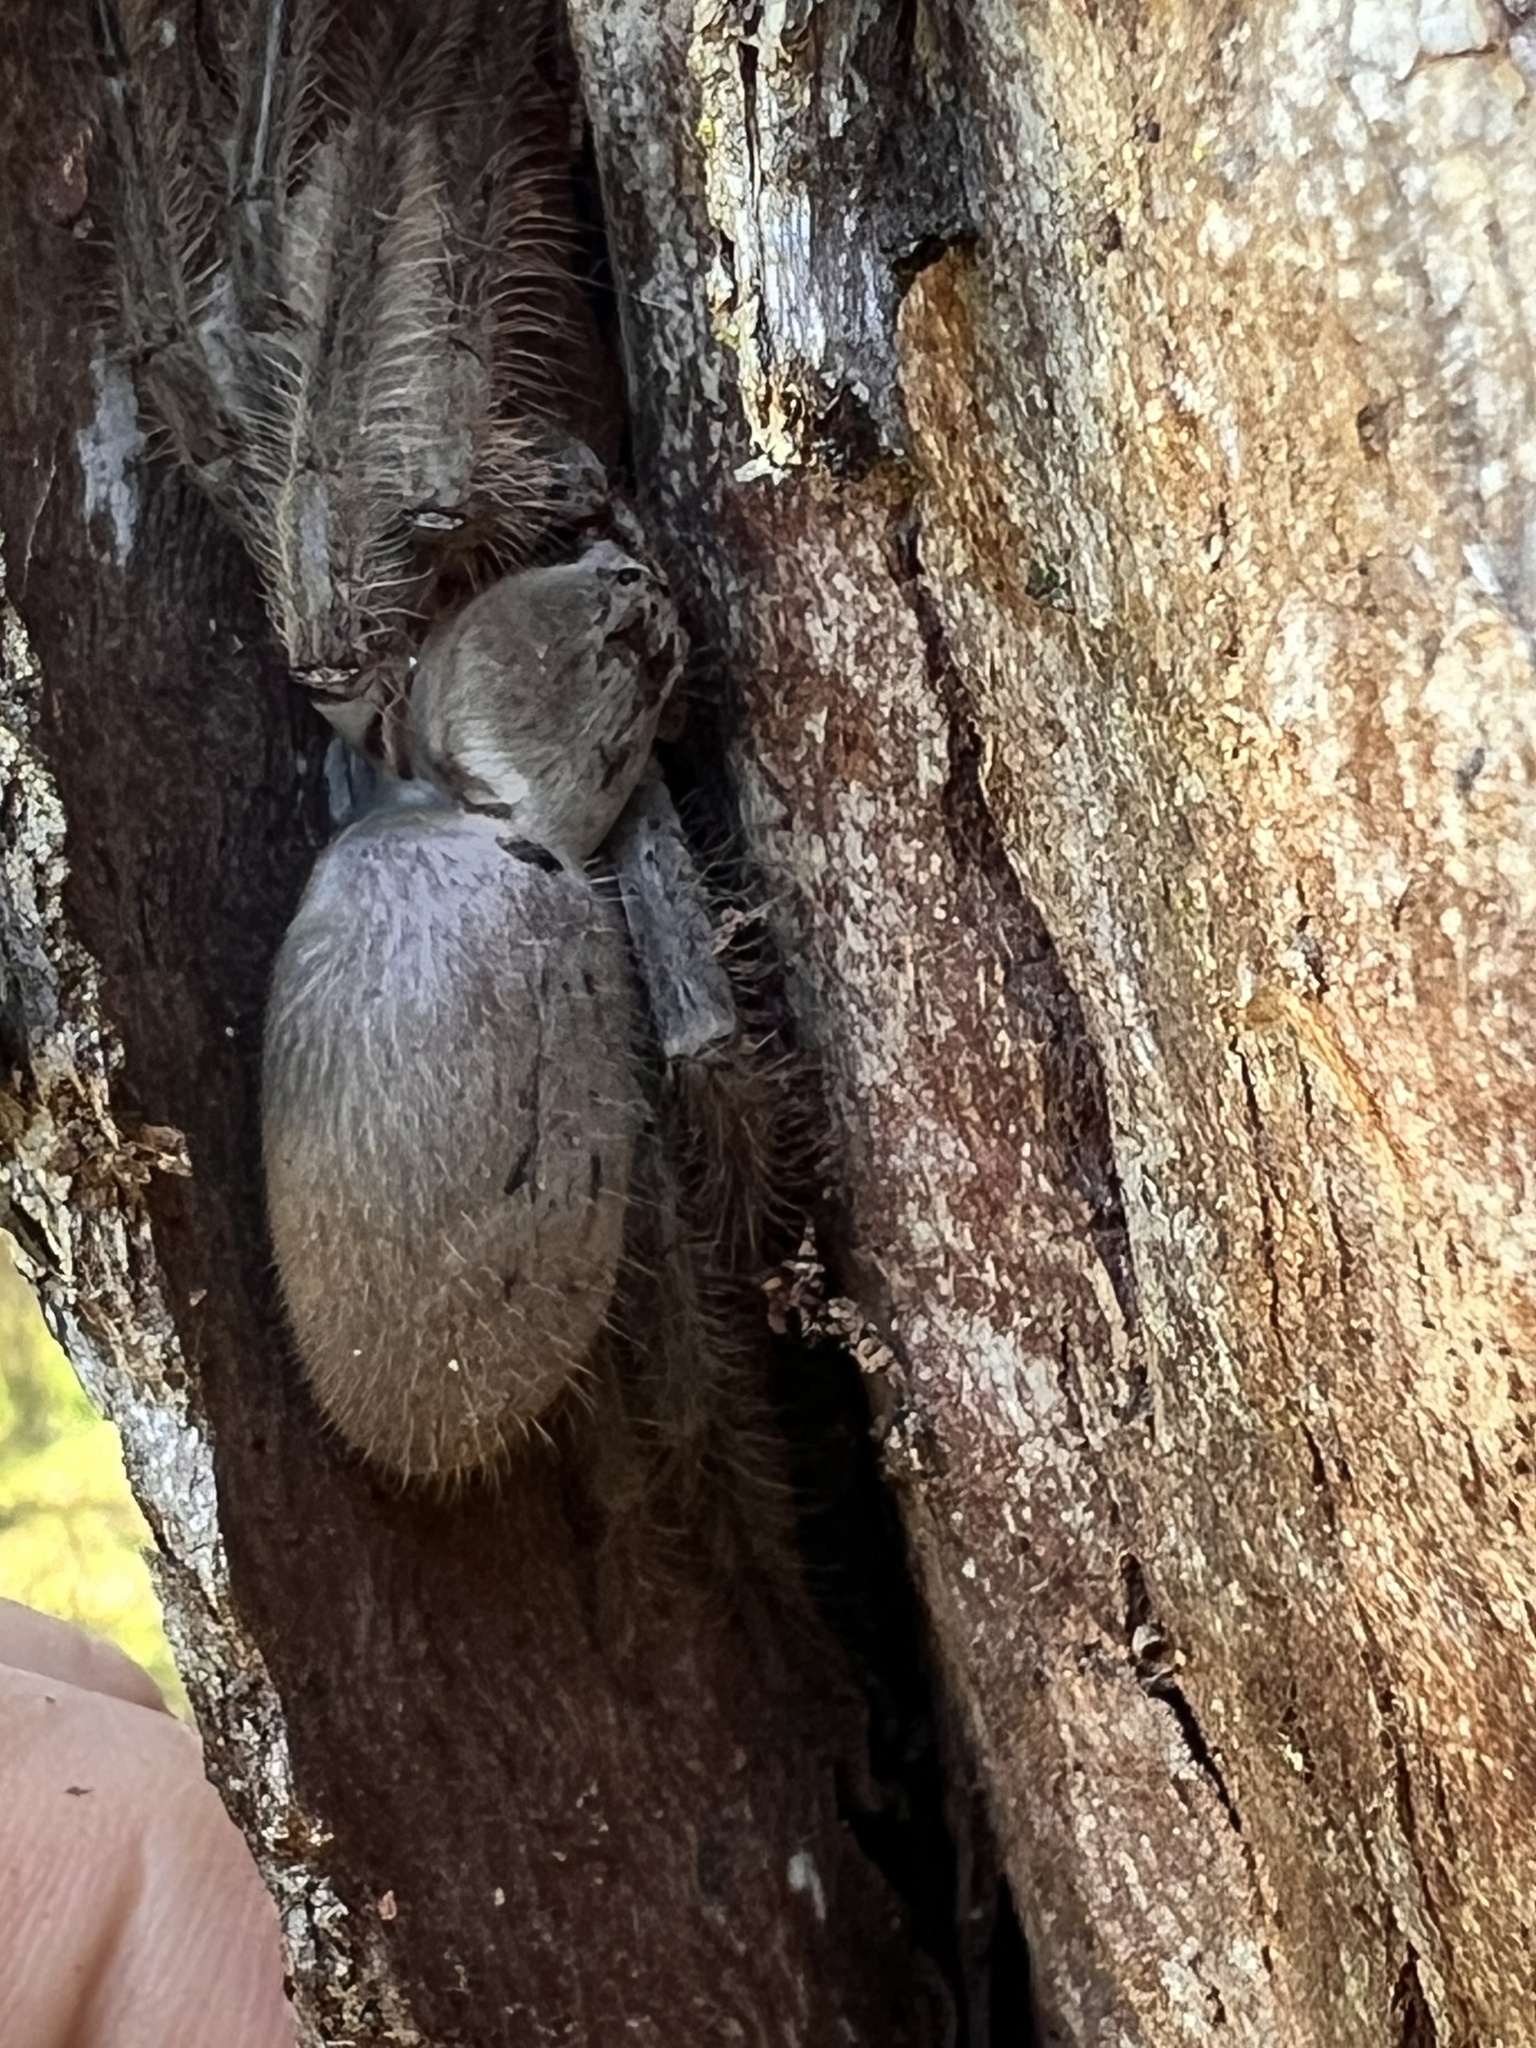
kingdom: Animalia
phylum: Arthropoda
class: Arachnida
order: Araneae
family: Sparassidae
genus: Isopeda
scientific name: Isopeda villosa
